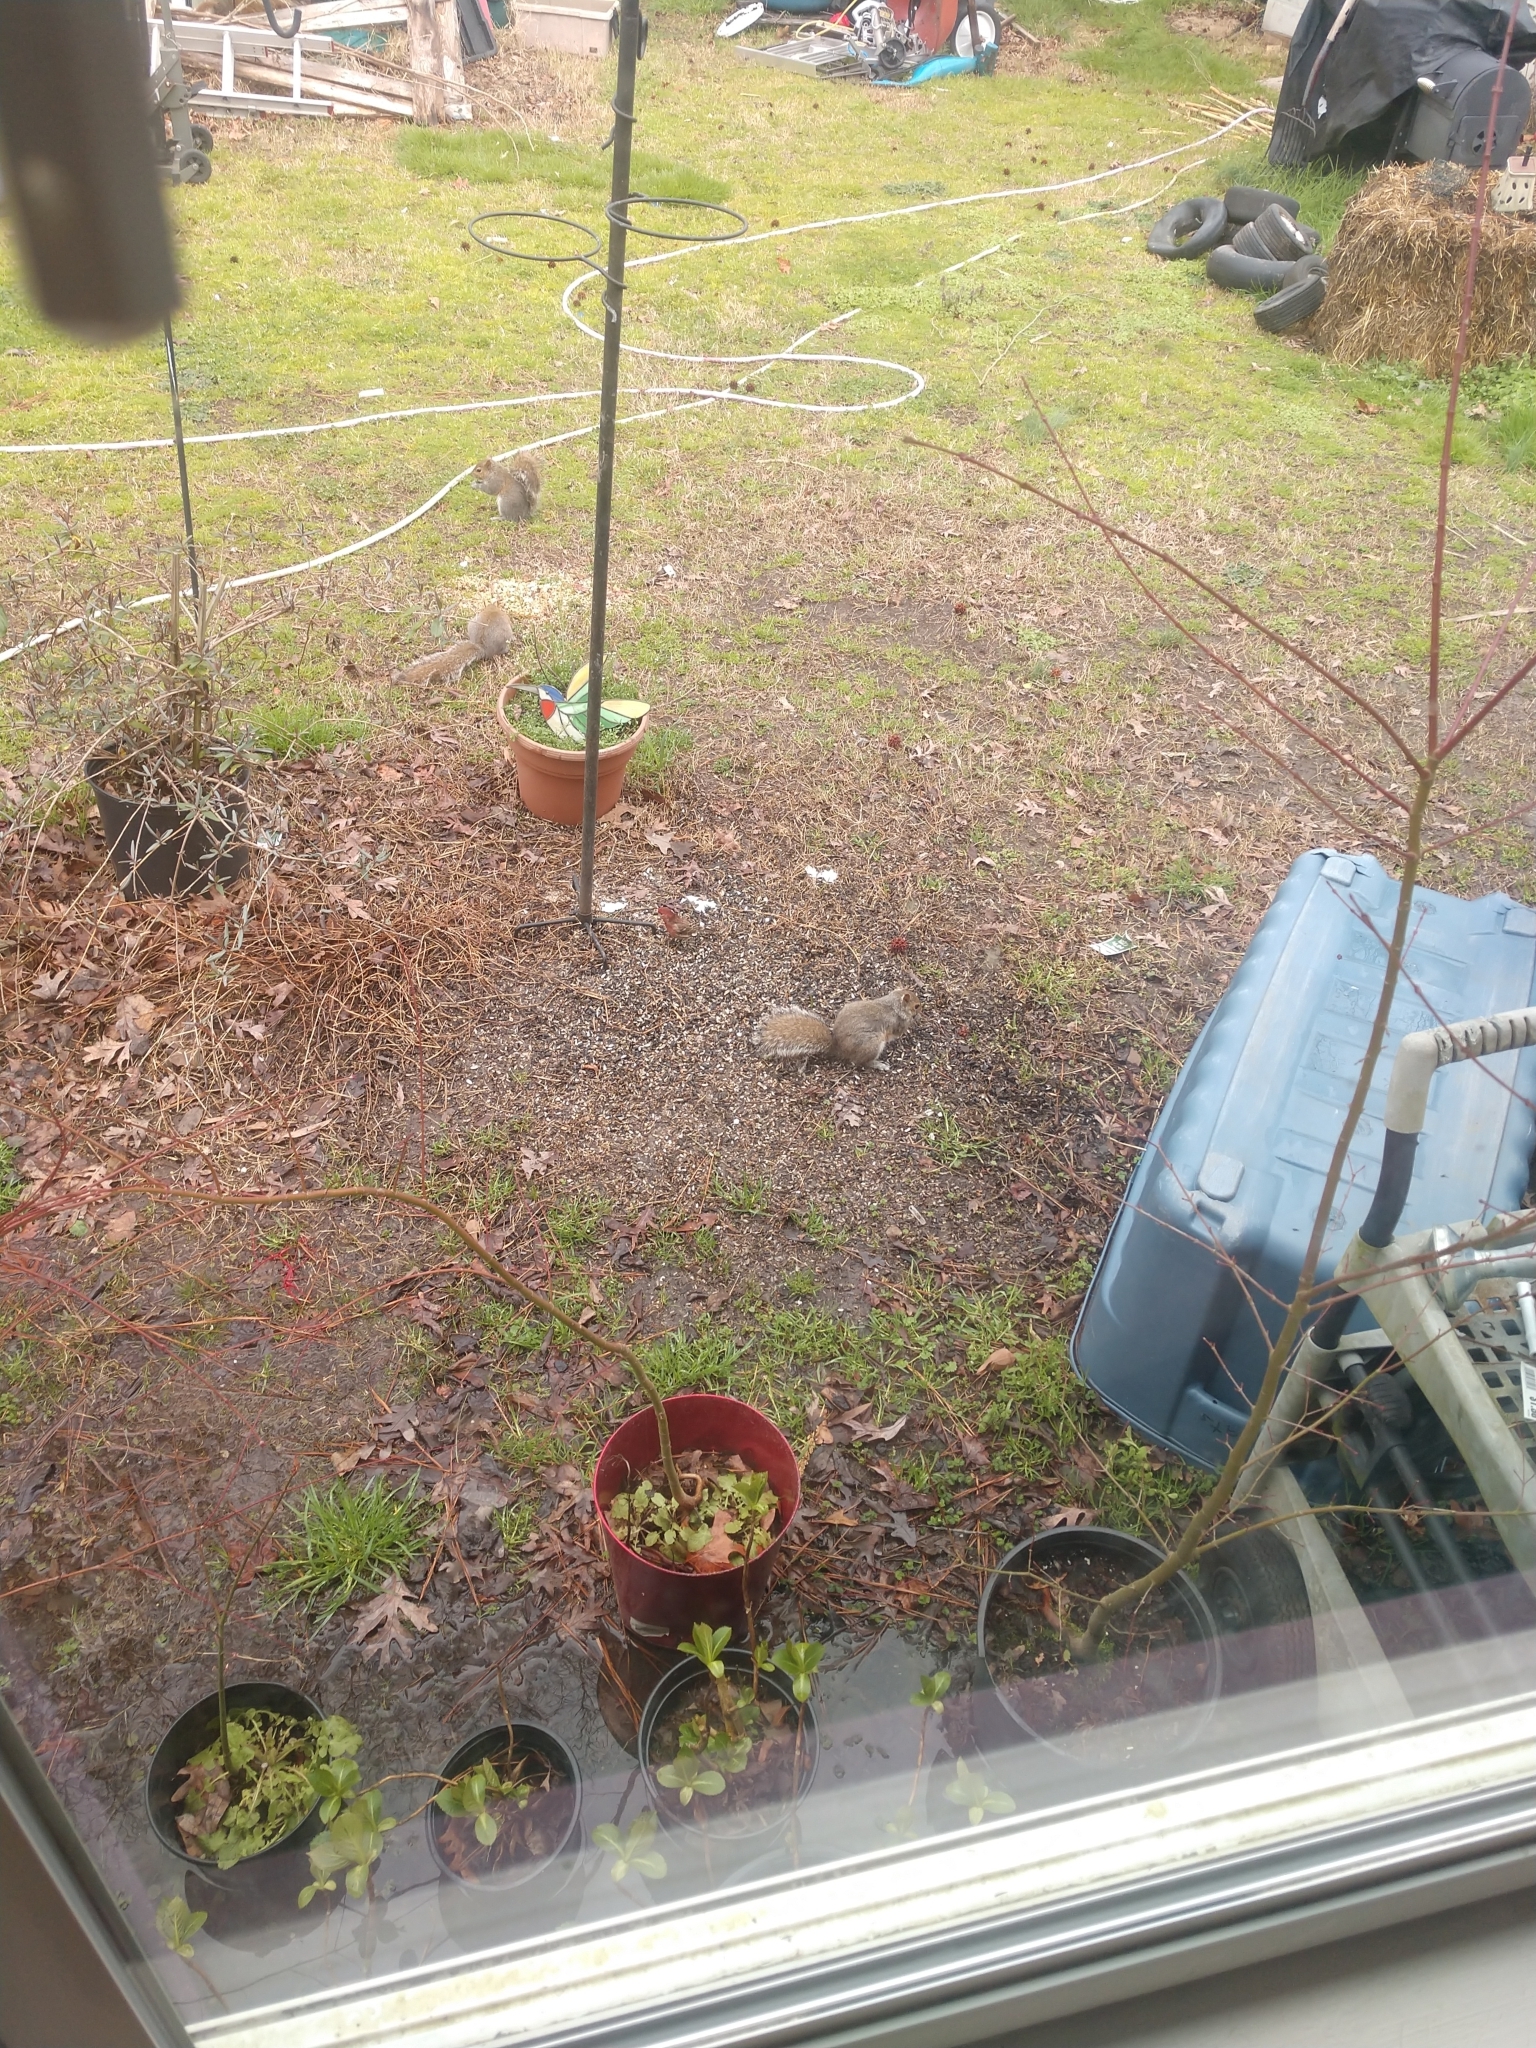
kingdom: Animalia
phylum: Chordata
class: Mammalia
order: Rodentia
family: Sciuridae
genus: Sciurus
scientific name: Sciurus carolinensis
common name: Eastern gray squirrel
